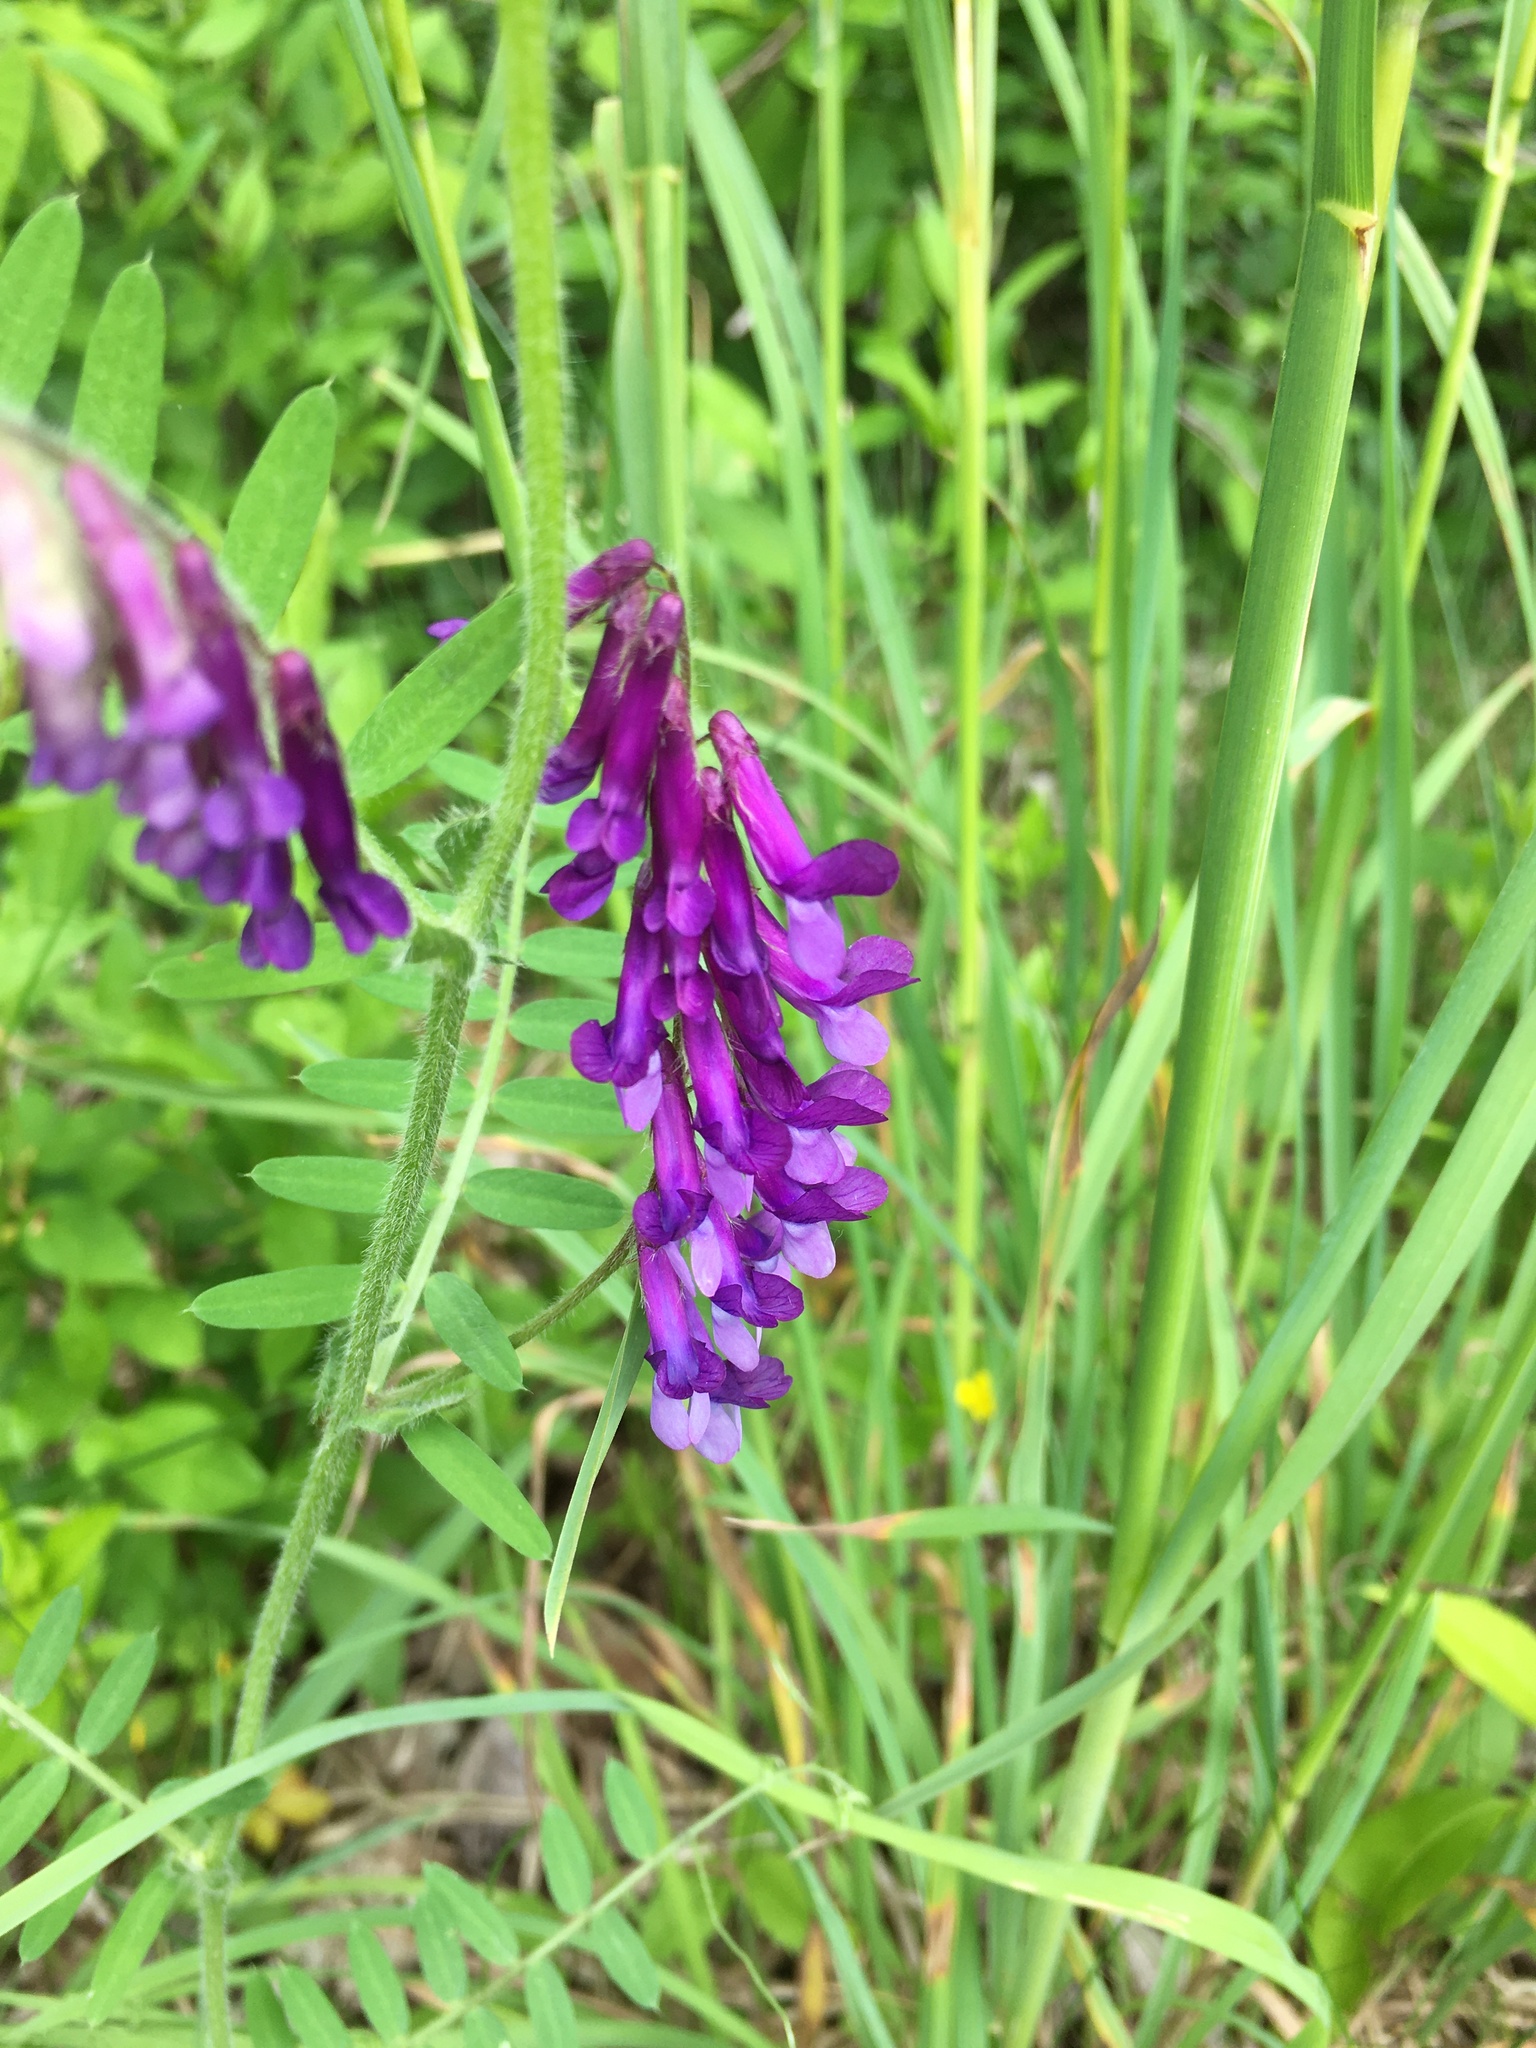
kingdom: Plantae
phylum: Tracheophyta
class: Magnoliopsida
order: Fabales
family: Fabaceae
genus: Vicia
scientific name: Vicia villosa
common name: Fodder vetch
